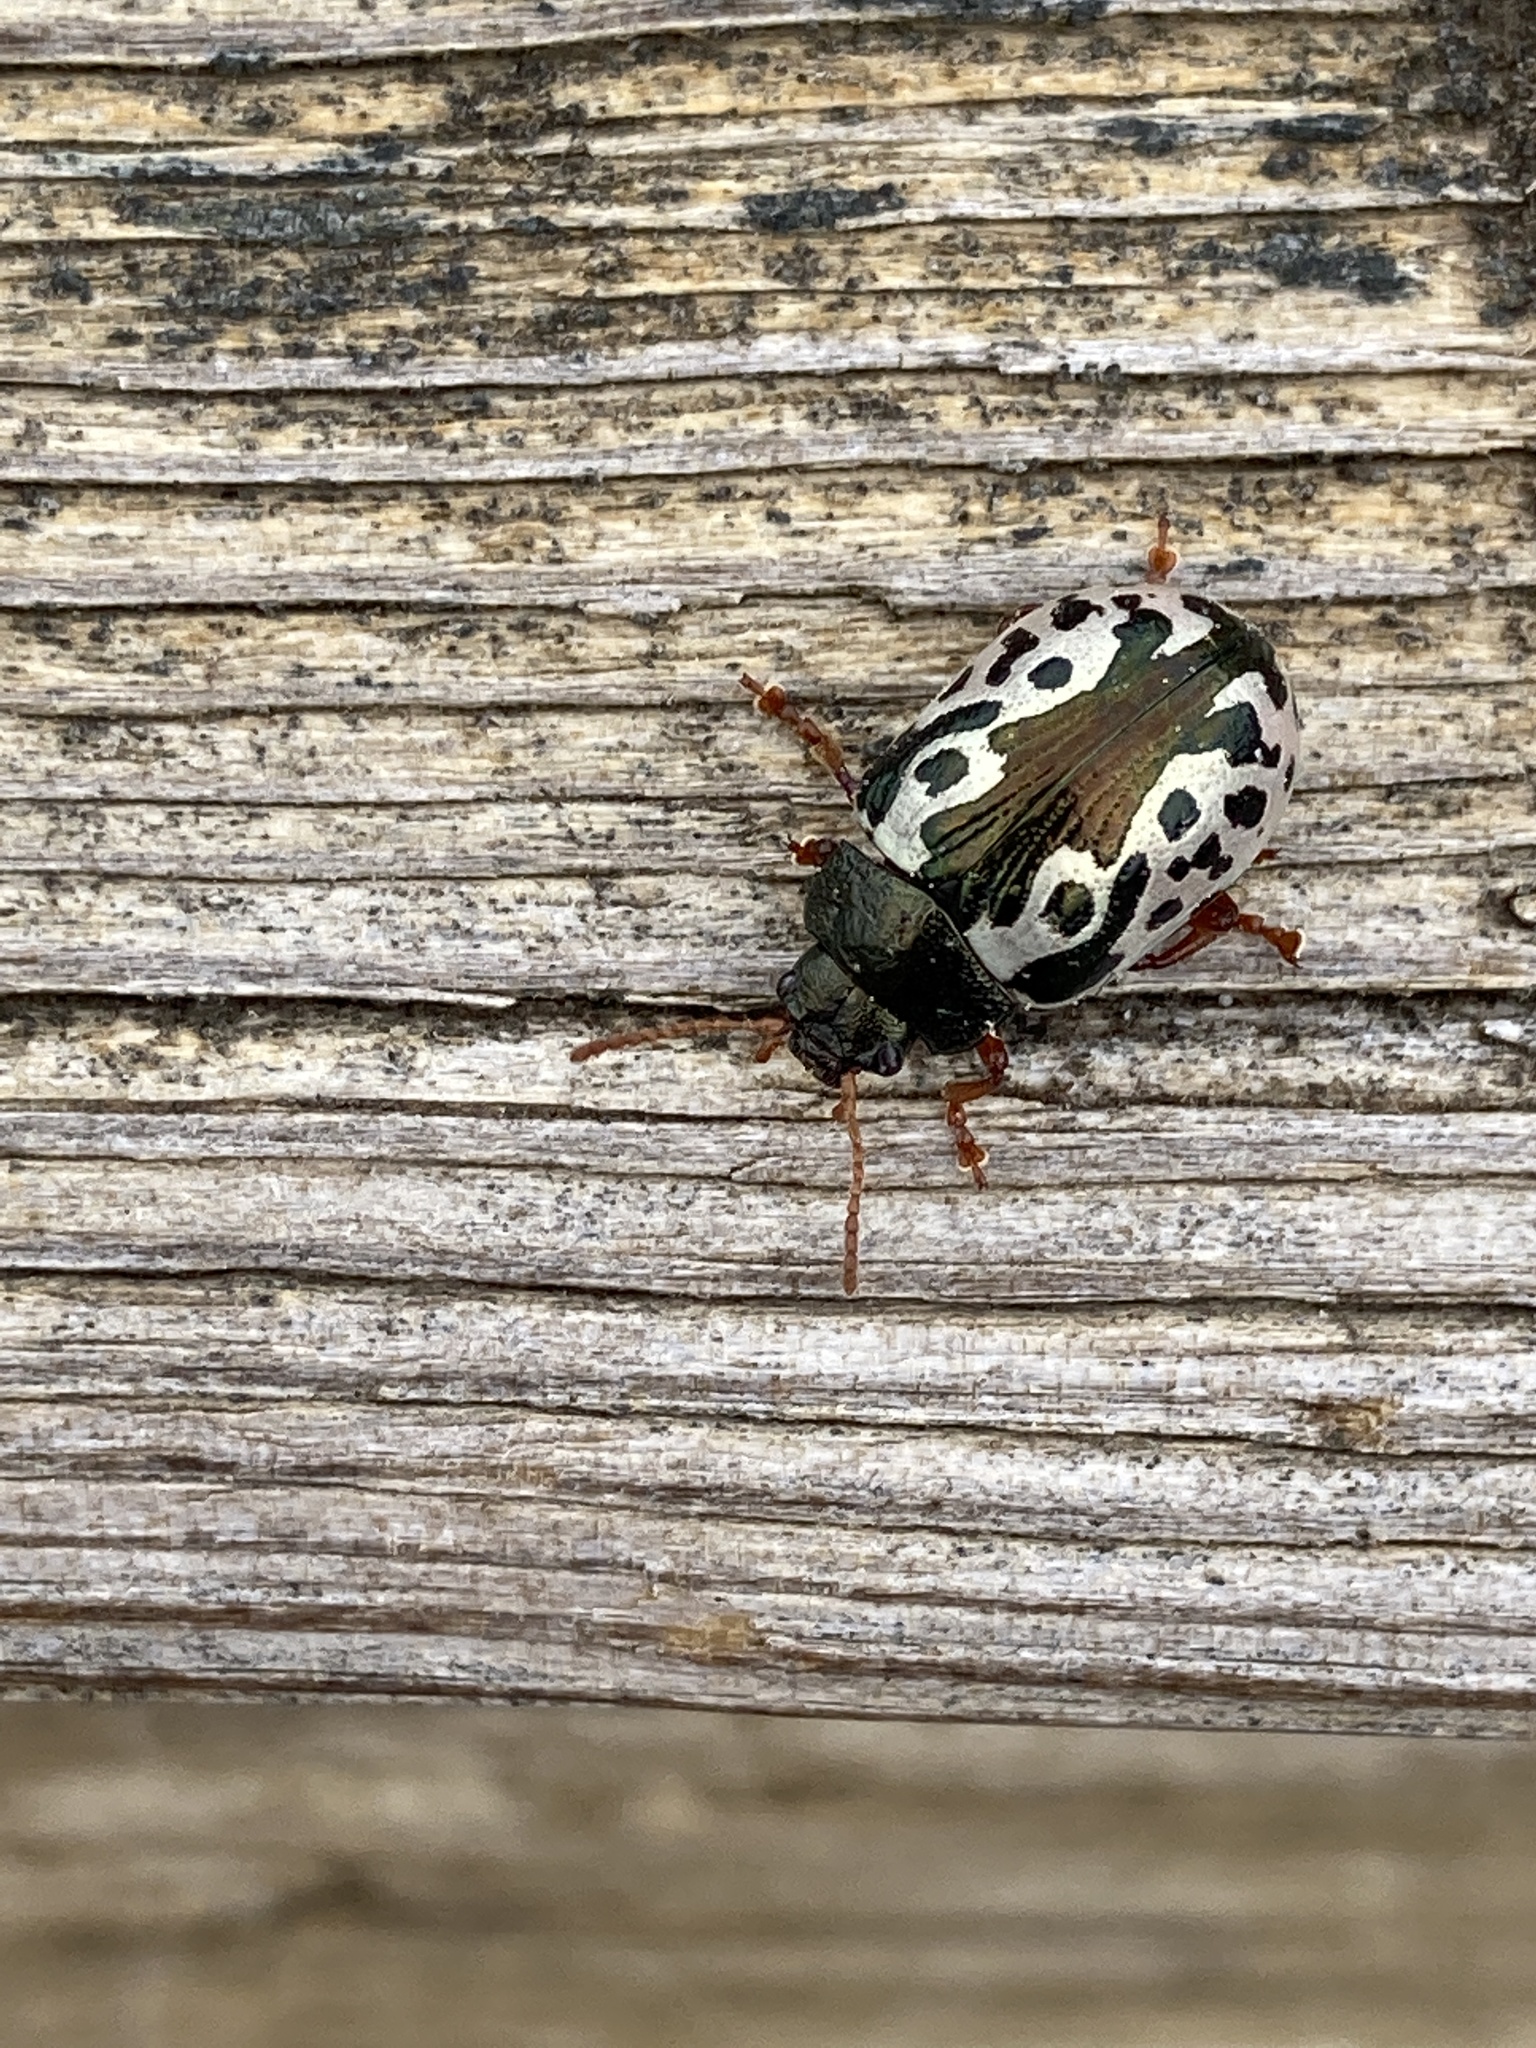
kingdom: Animalia
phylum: Arthropoda
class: Insecta
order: Coleoptera
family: Chrysomelidae
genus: Calligrapha
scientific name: Calligrapha confluens
